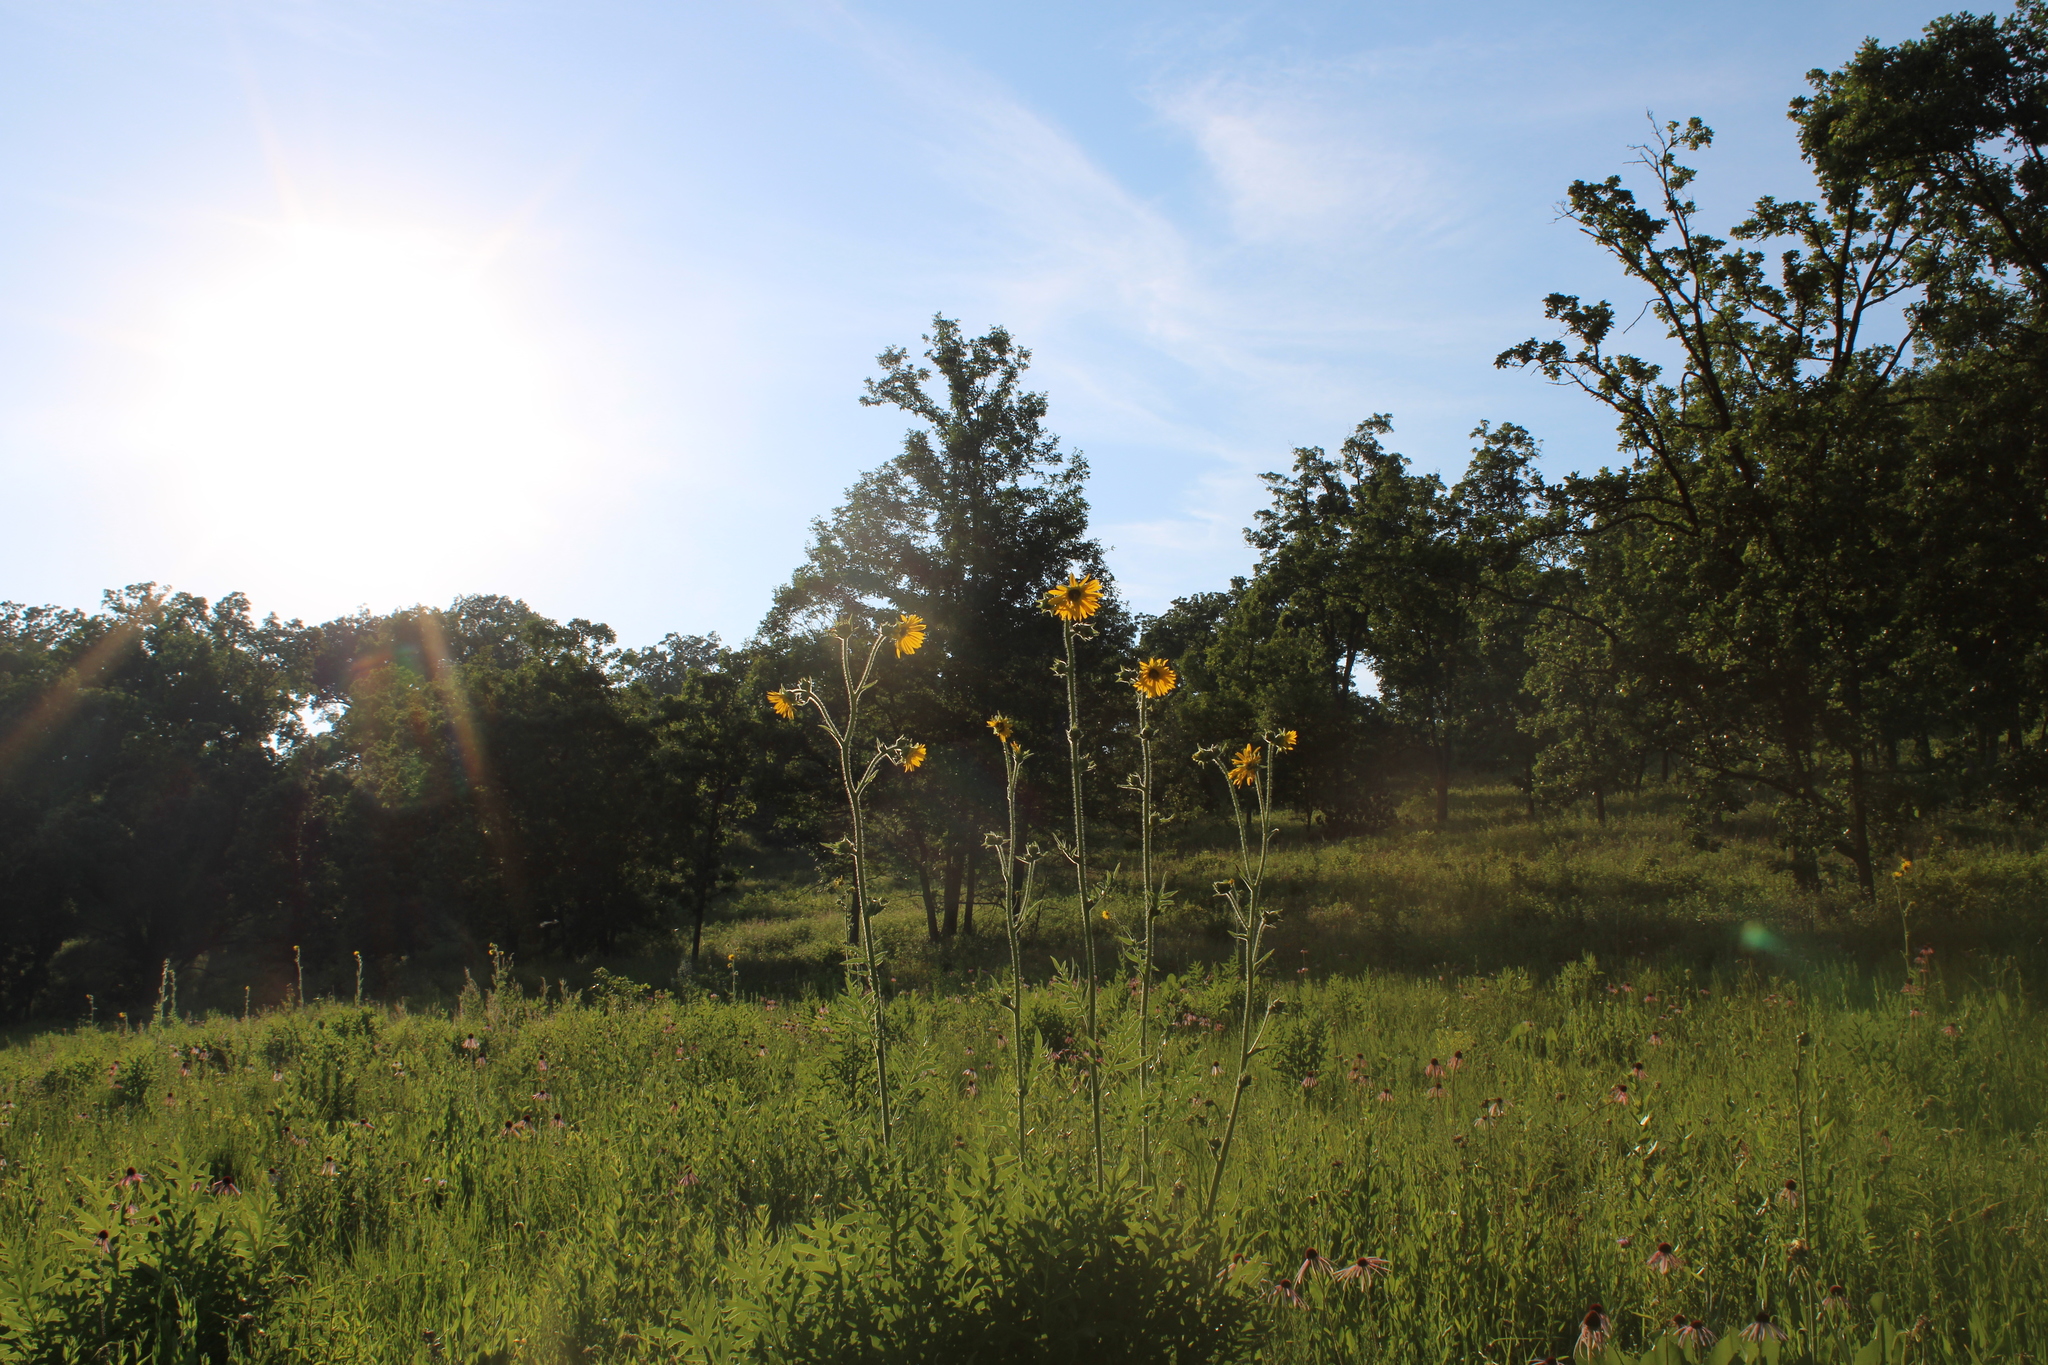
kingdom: Plantae
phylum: Tracheophyta
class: Magnoliopsida
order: Asterales
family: Asteraceae
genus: Silphium
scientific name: Silphium laciniatum
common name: Polarplant
